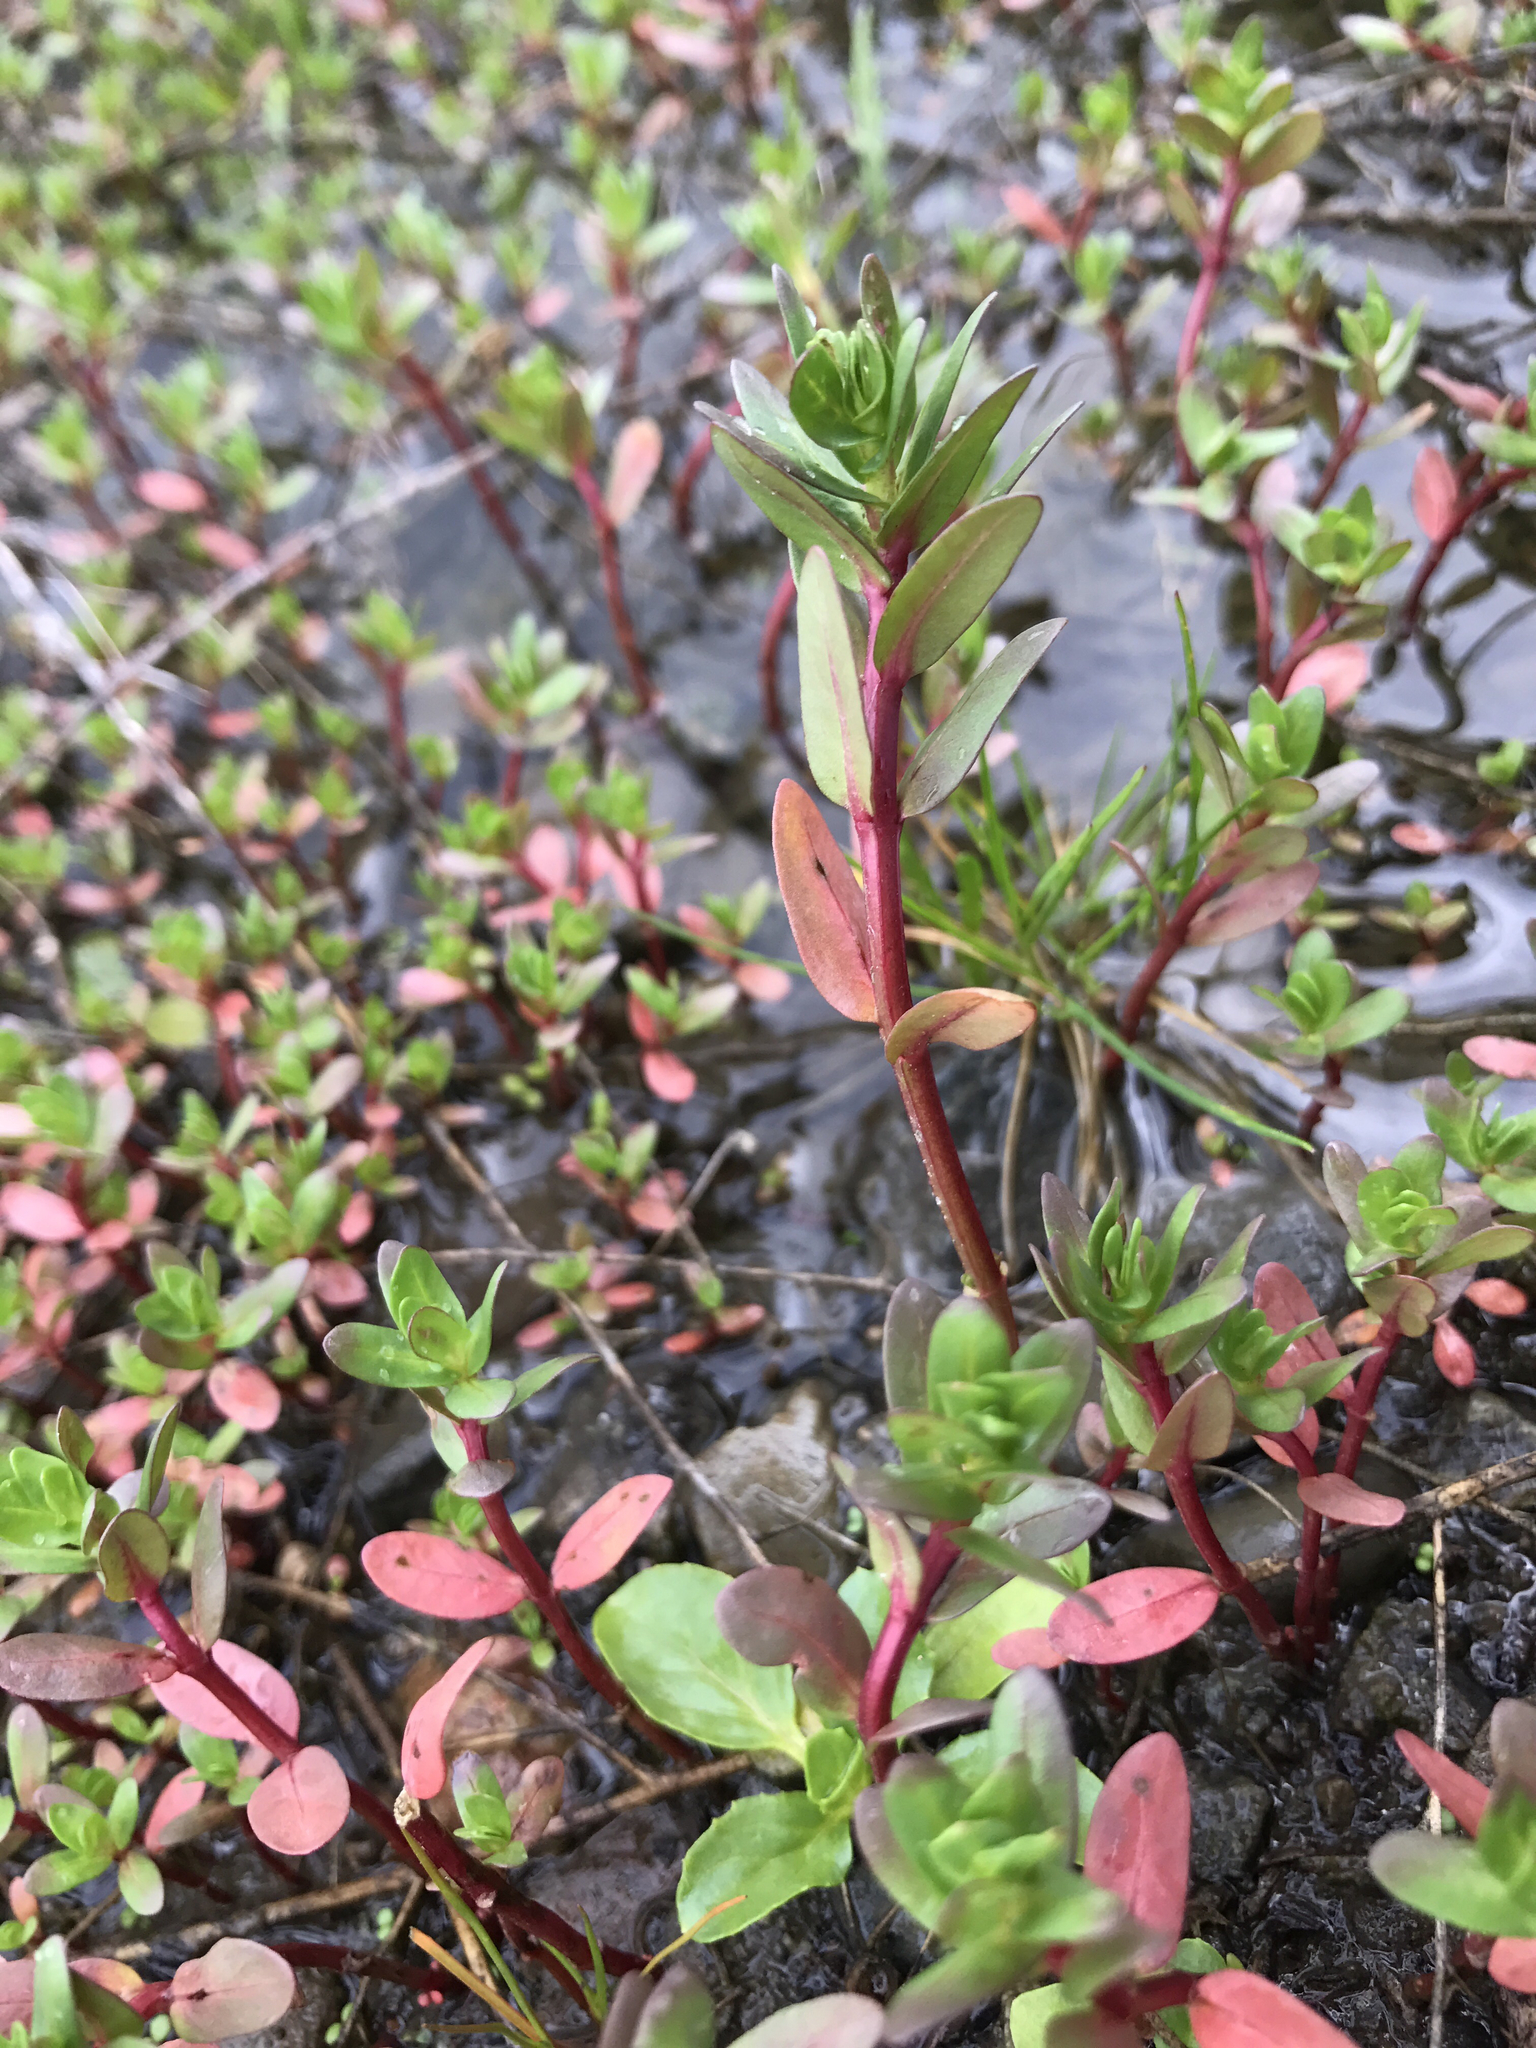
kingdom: Plantae
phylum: Tracheophyta
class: Magnoliopsida
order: Myrtales
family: Lythraceae
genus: Lythrum
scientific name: Lythrum hyssopifolia
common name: Grass-poly
